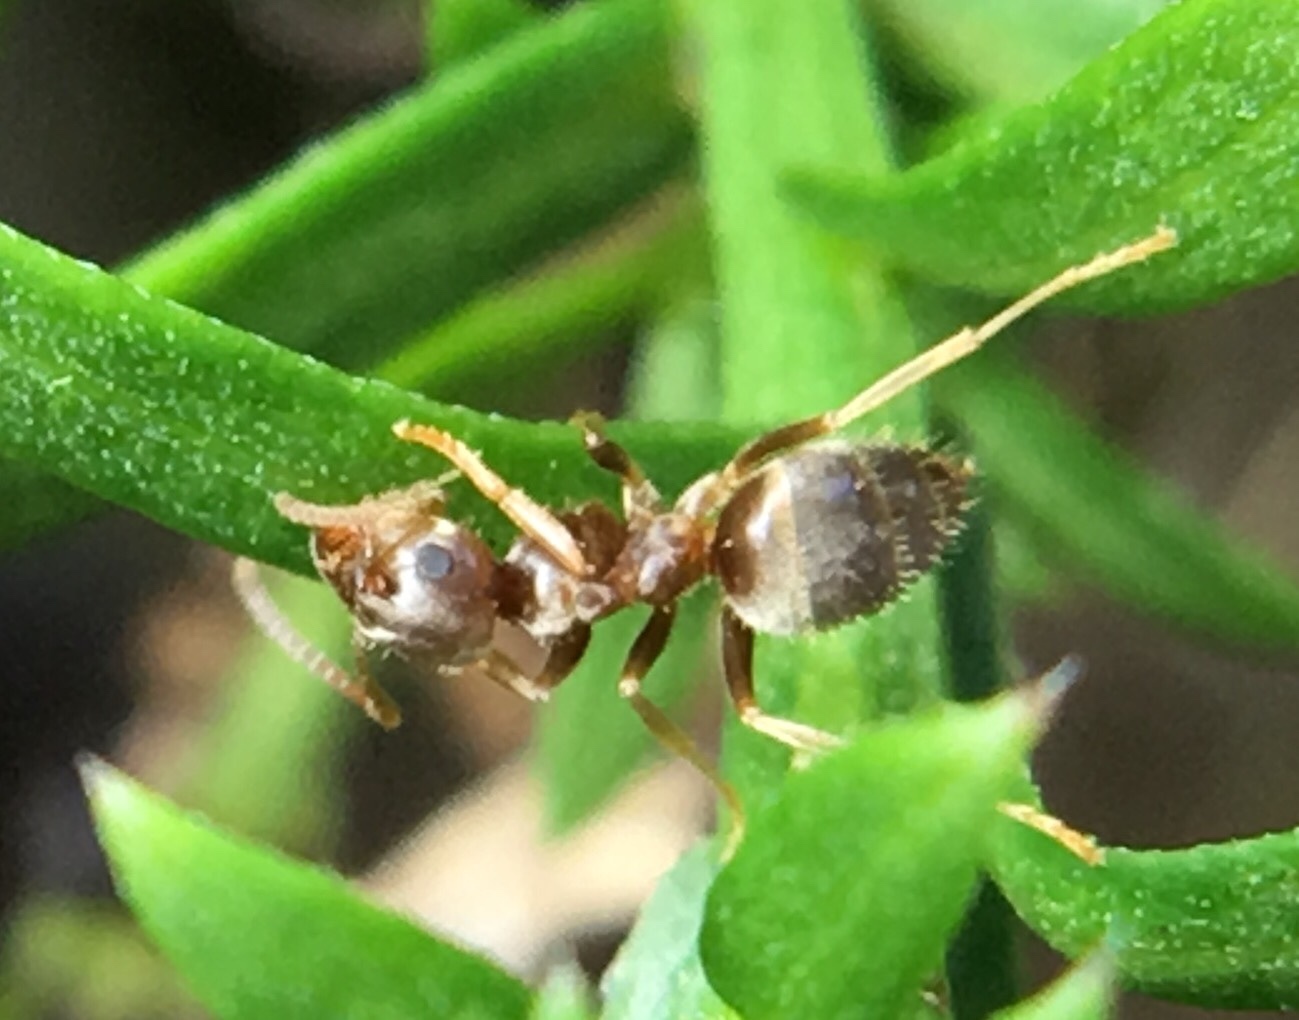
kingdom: Animalia
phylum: Arthropoda
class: Insecta
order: Hymenoptera
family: Formicidae
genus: Lasius
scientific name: Lasius neoniger
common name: Turfgrass ant
